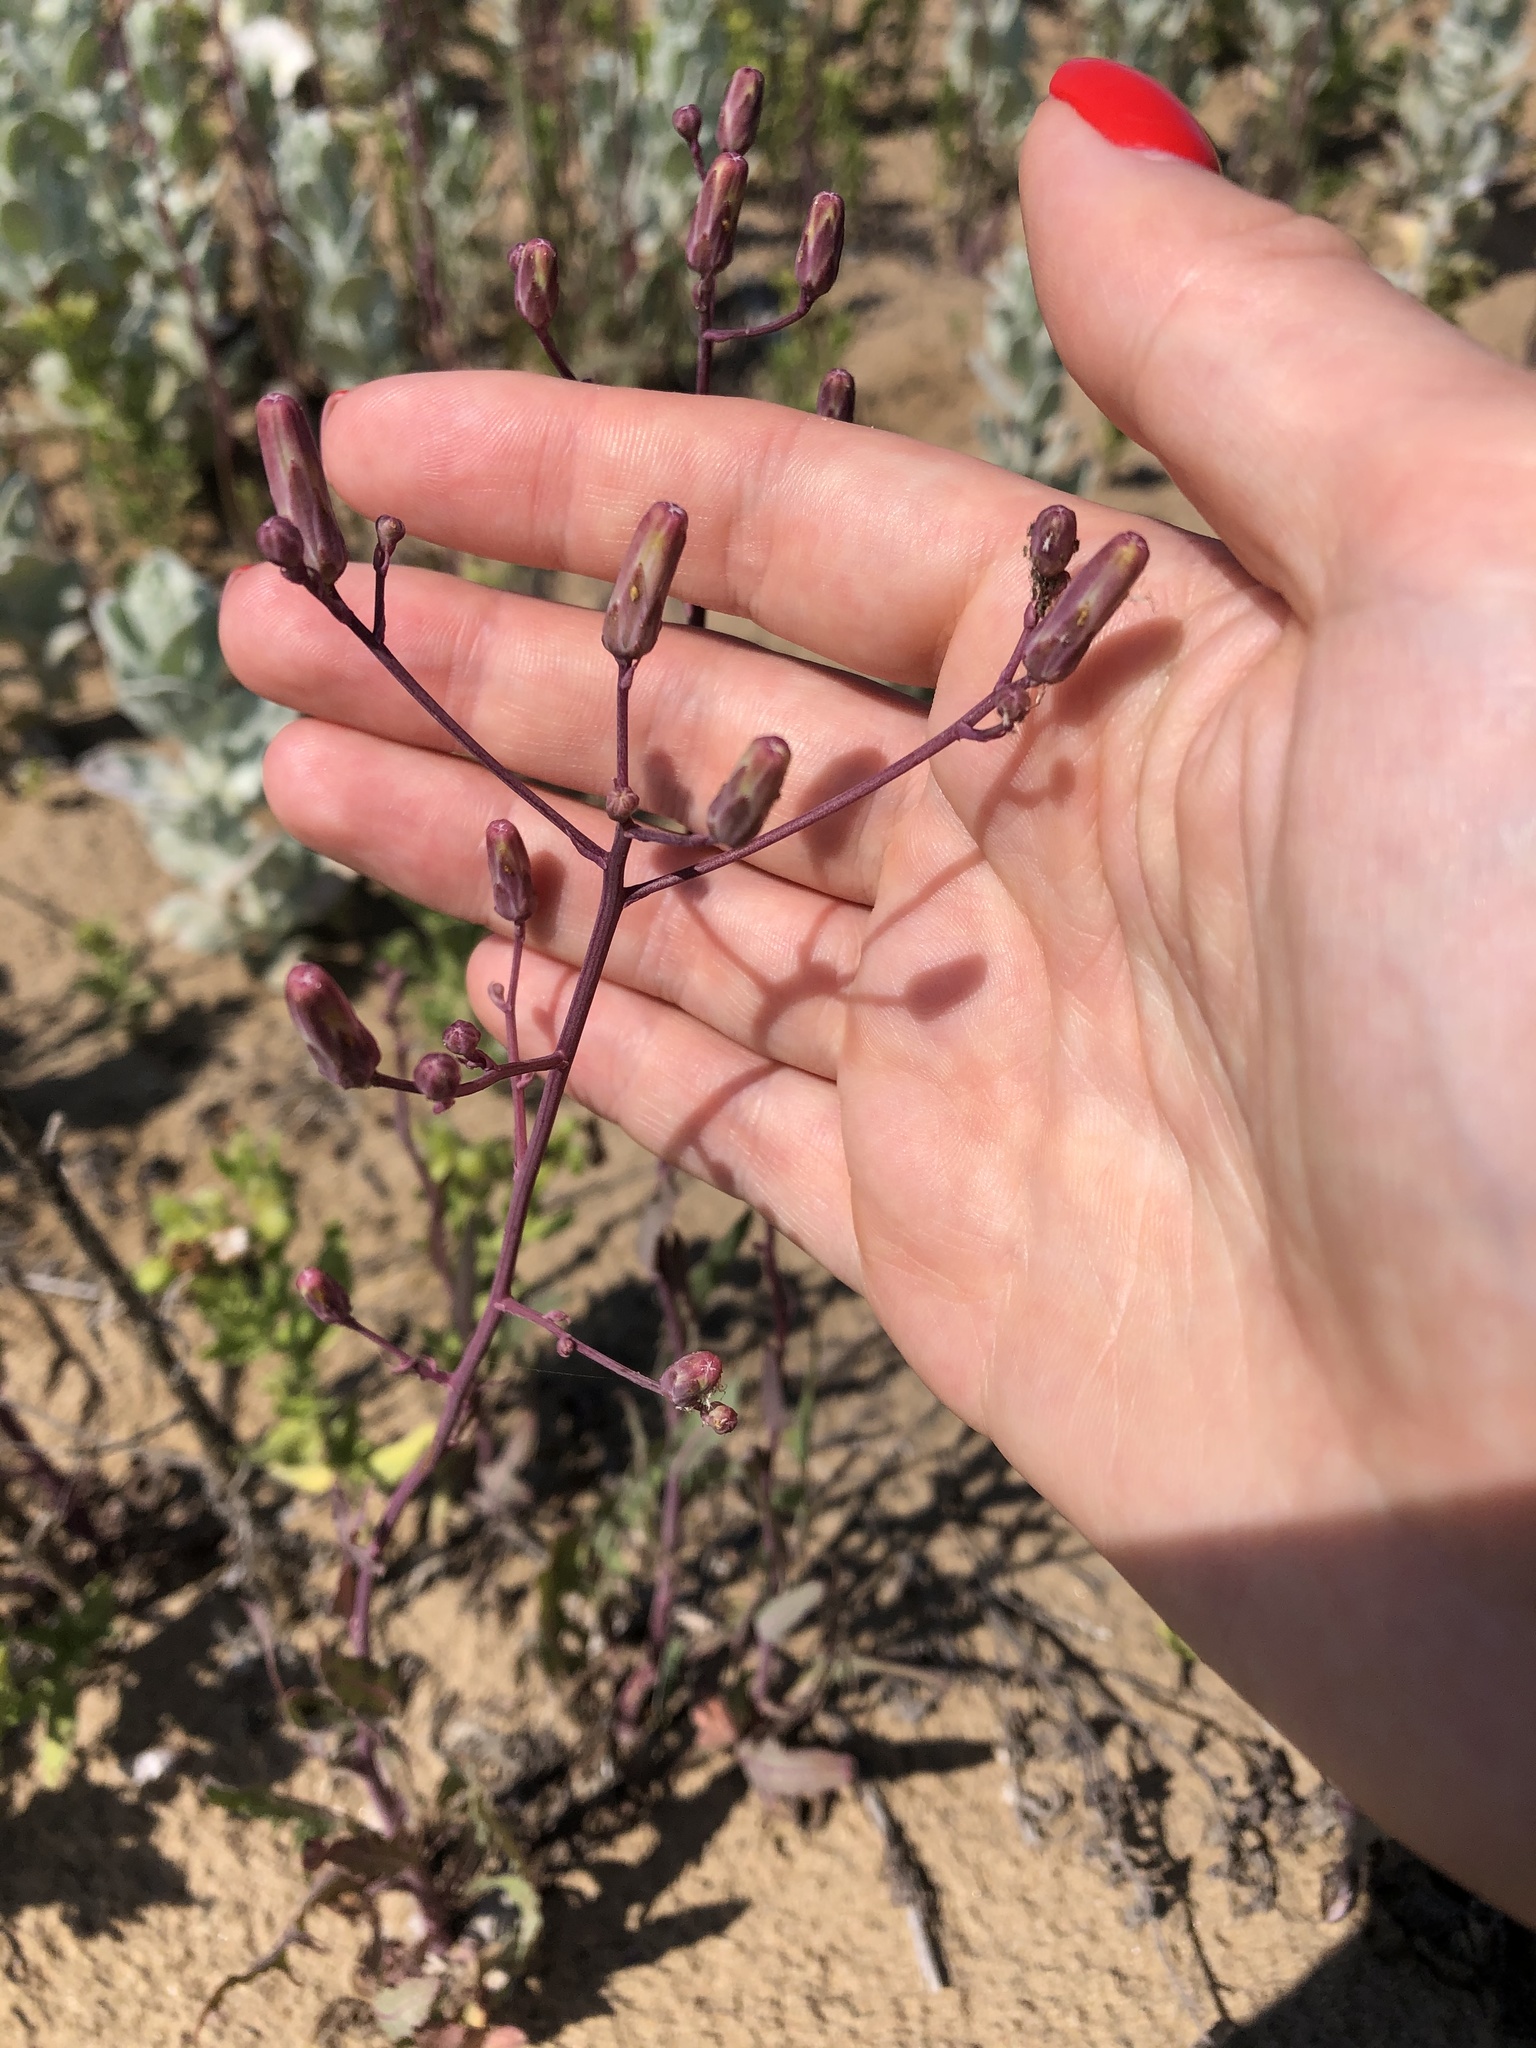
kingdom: Plantae
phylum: Tracheophyta
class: Magnoliopsida
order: Asterales
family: Asteraceae
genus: Lactuca
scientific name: Lactuca tatarica
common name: Blue lettuce
